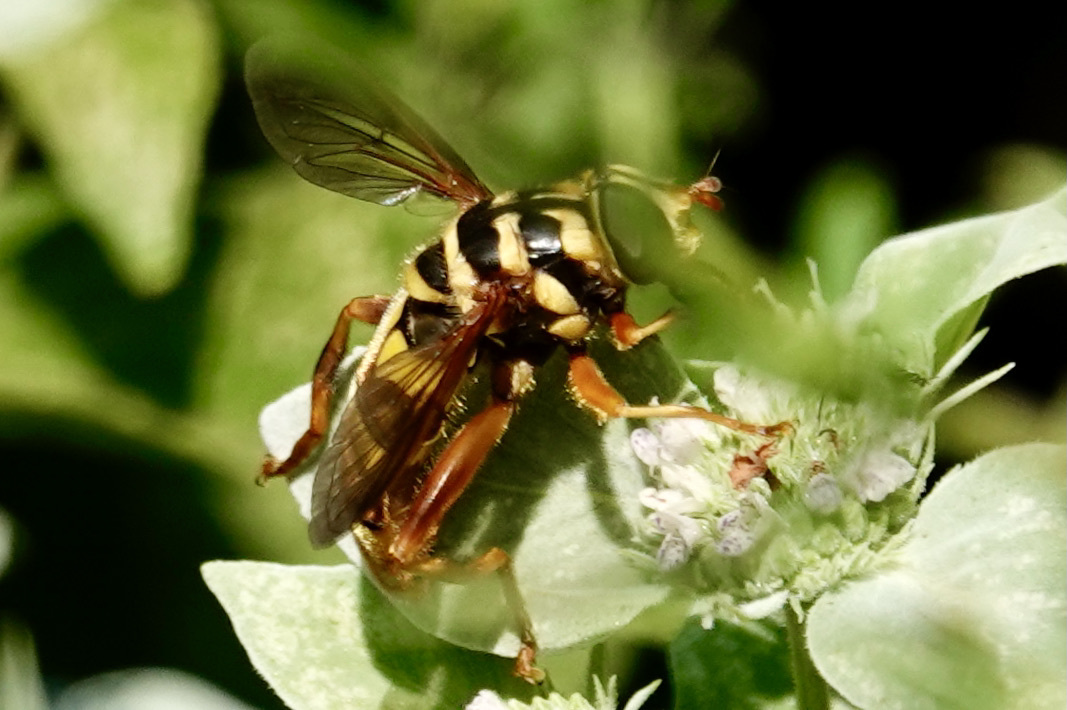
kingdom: Animalia
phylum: Arthropoda
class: Insecta
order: Diptera
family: Syrphidae
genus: Milesia
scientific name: Milesia virginiensis
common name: Virginia giant
